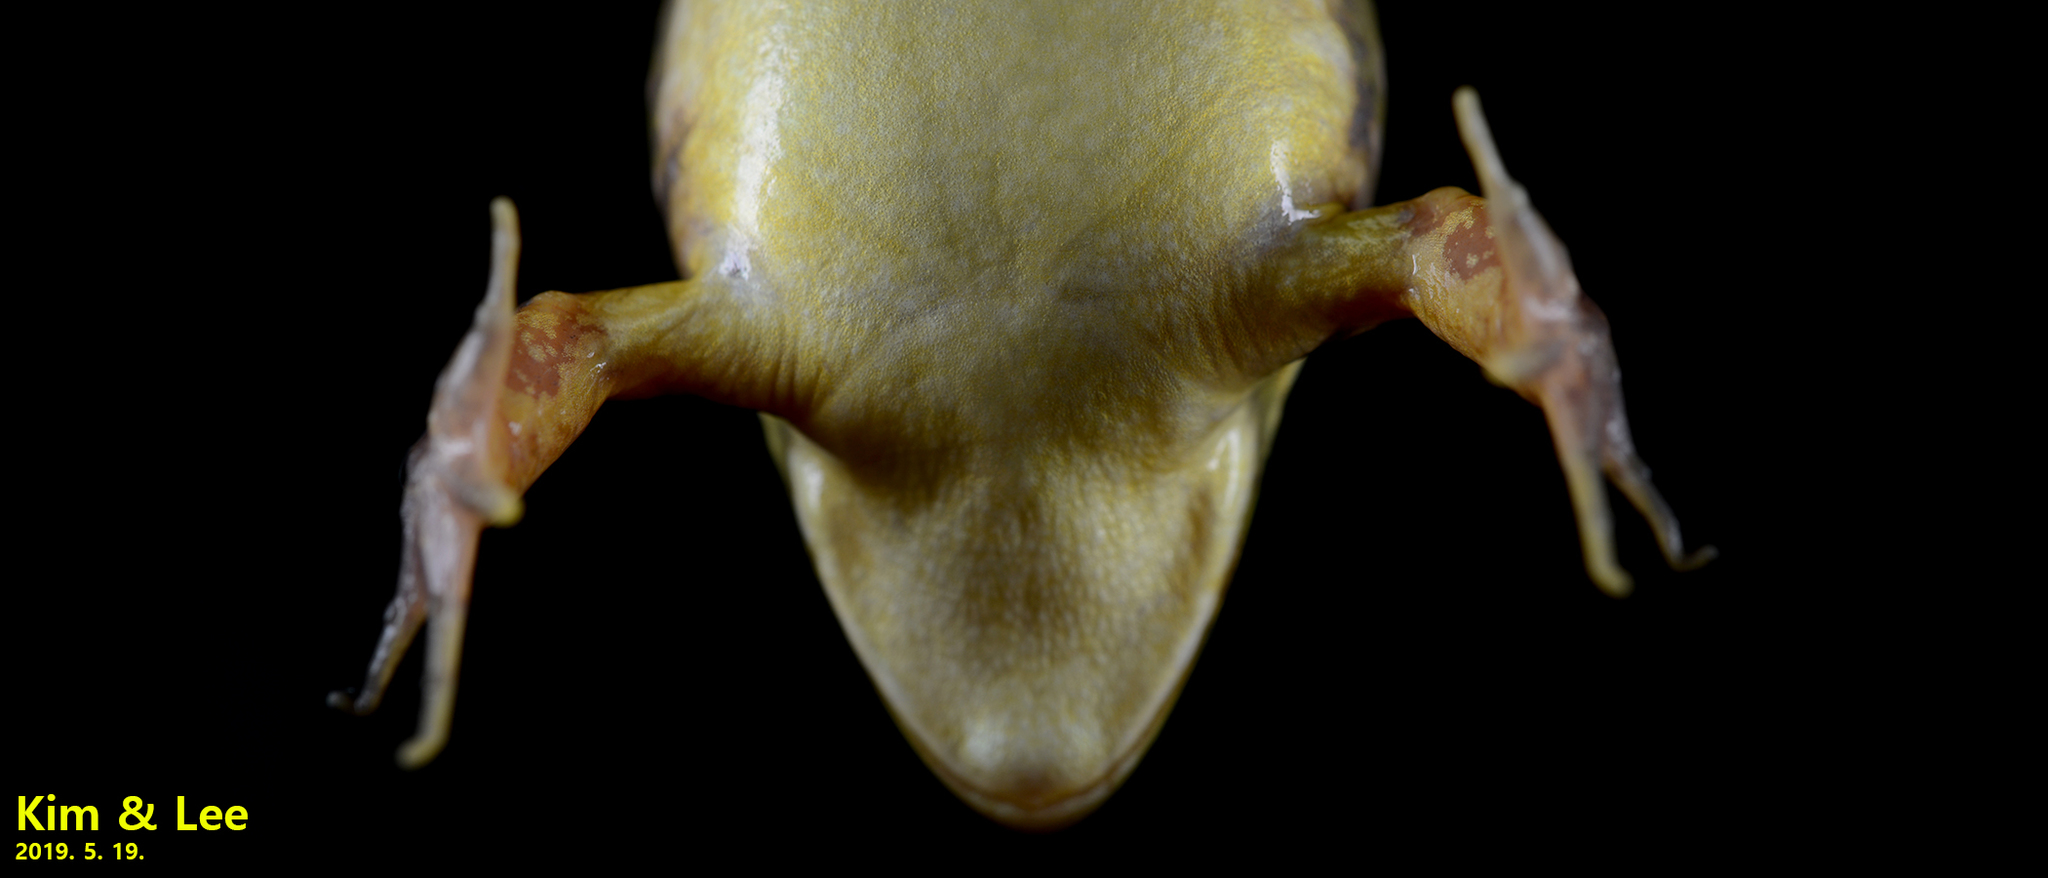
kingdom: Animalia
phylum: Chordata
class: Amphibia
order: Anura
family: Ranidae
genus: Pelophylax
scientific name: Pelophylax chosenicus
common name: Gold-spotted pond frog
